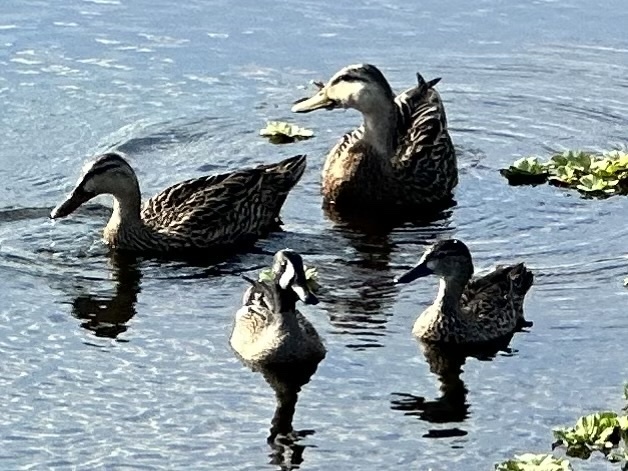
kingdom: Animalia
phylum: Chordata
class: Aves
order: Anseriformes
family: Anatidae
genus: Spatula
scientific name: Spatula discors
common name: Blue-winged teal
